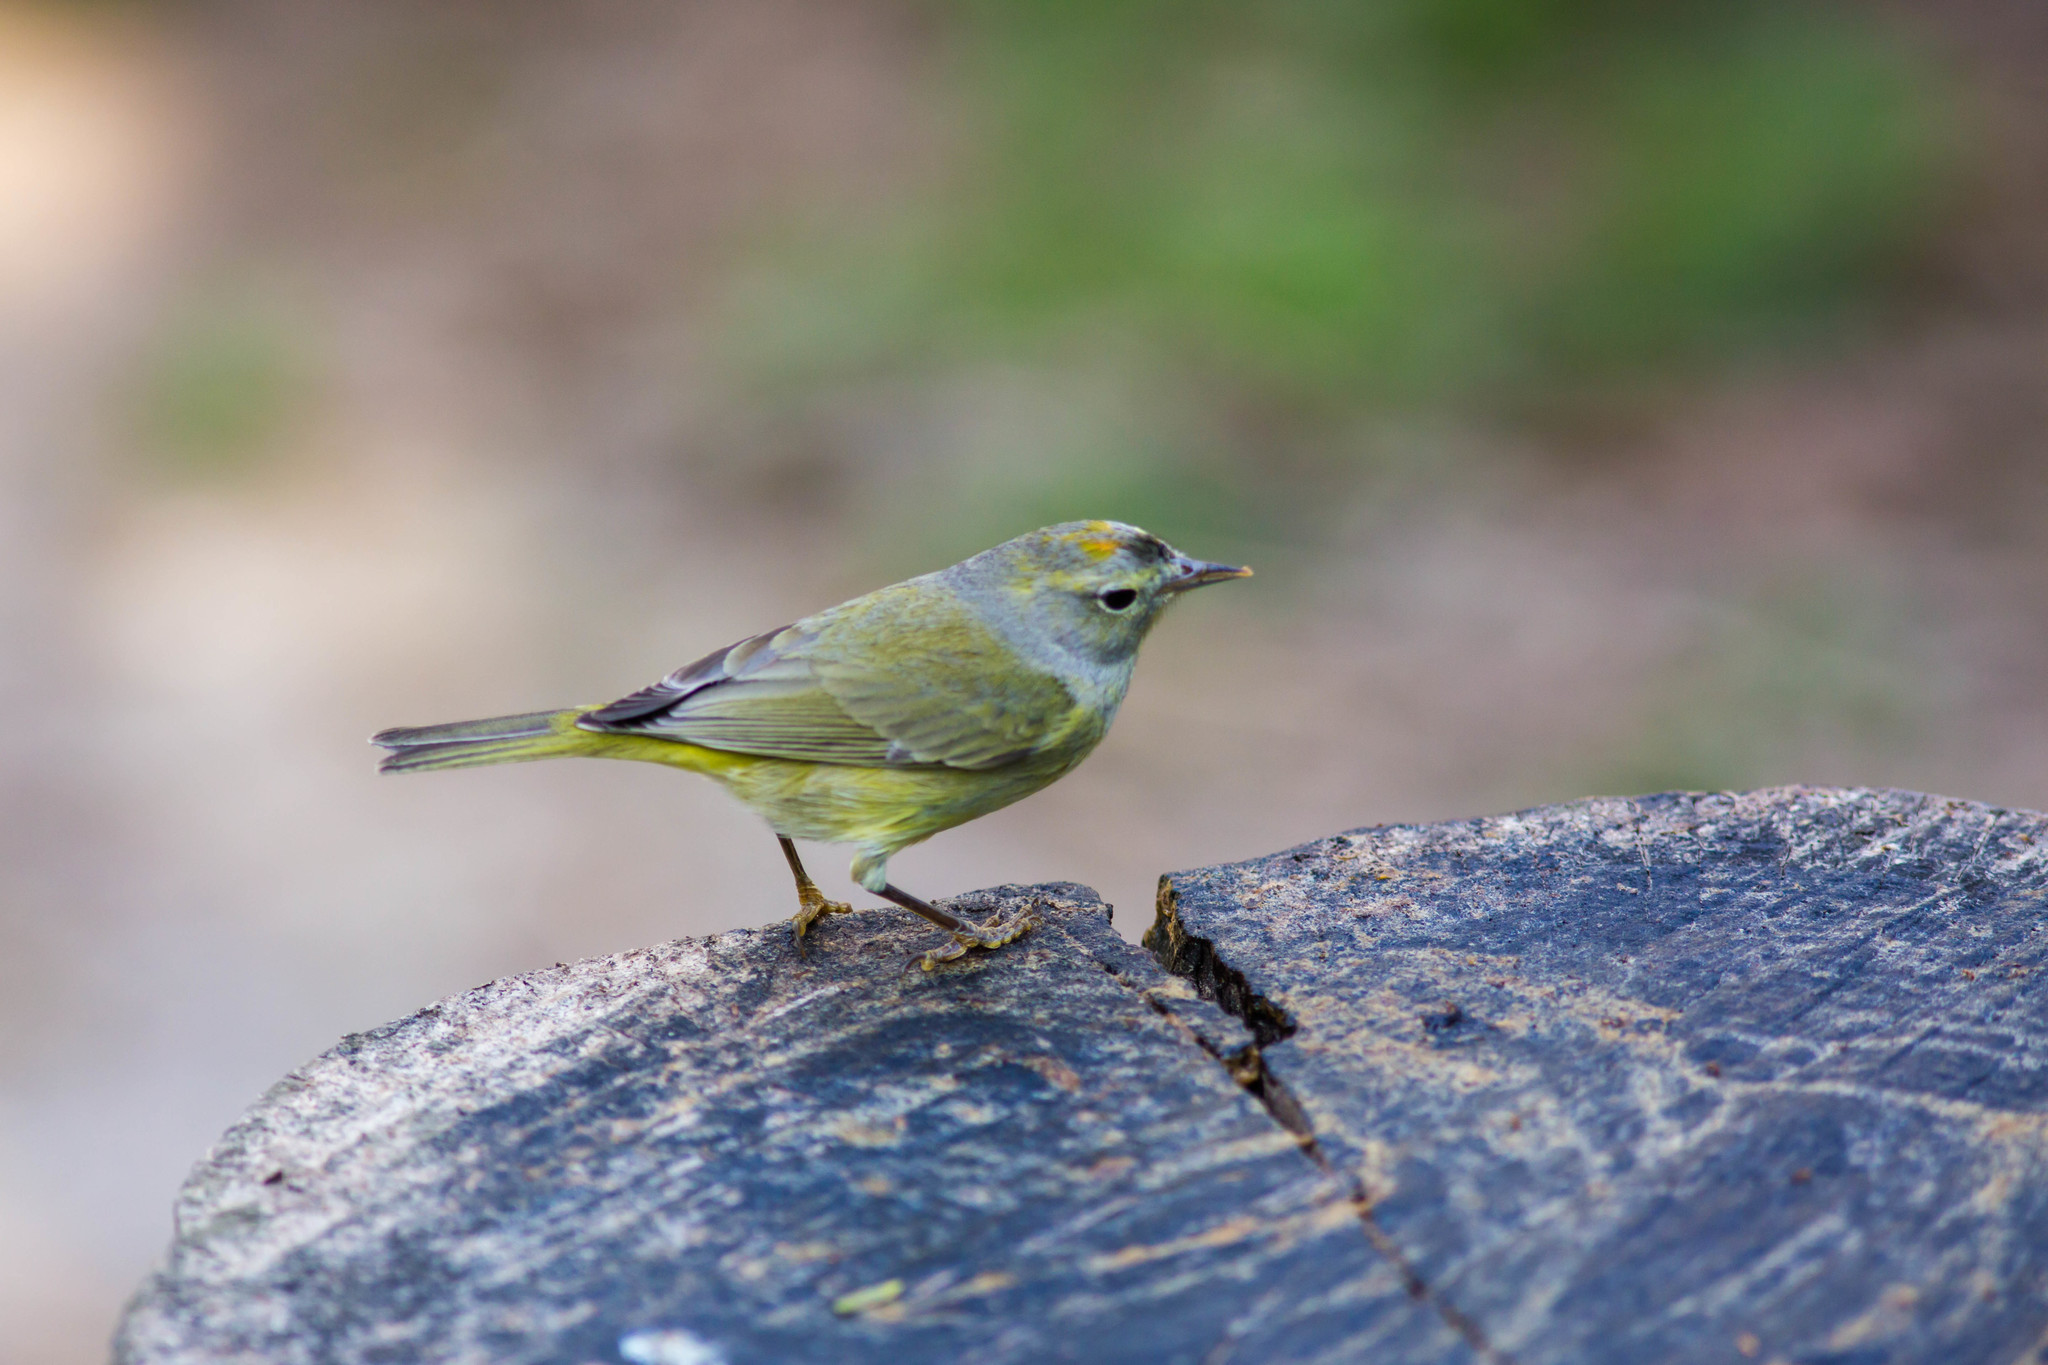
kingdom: Animalia
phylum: Chordata
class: Aves
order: Passeriformes
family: Parulidae
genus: Leiothlypis
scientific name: Leiothlypis celata
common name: Orange-crowned warbler
